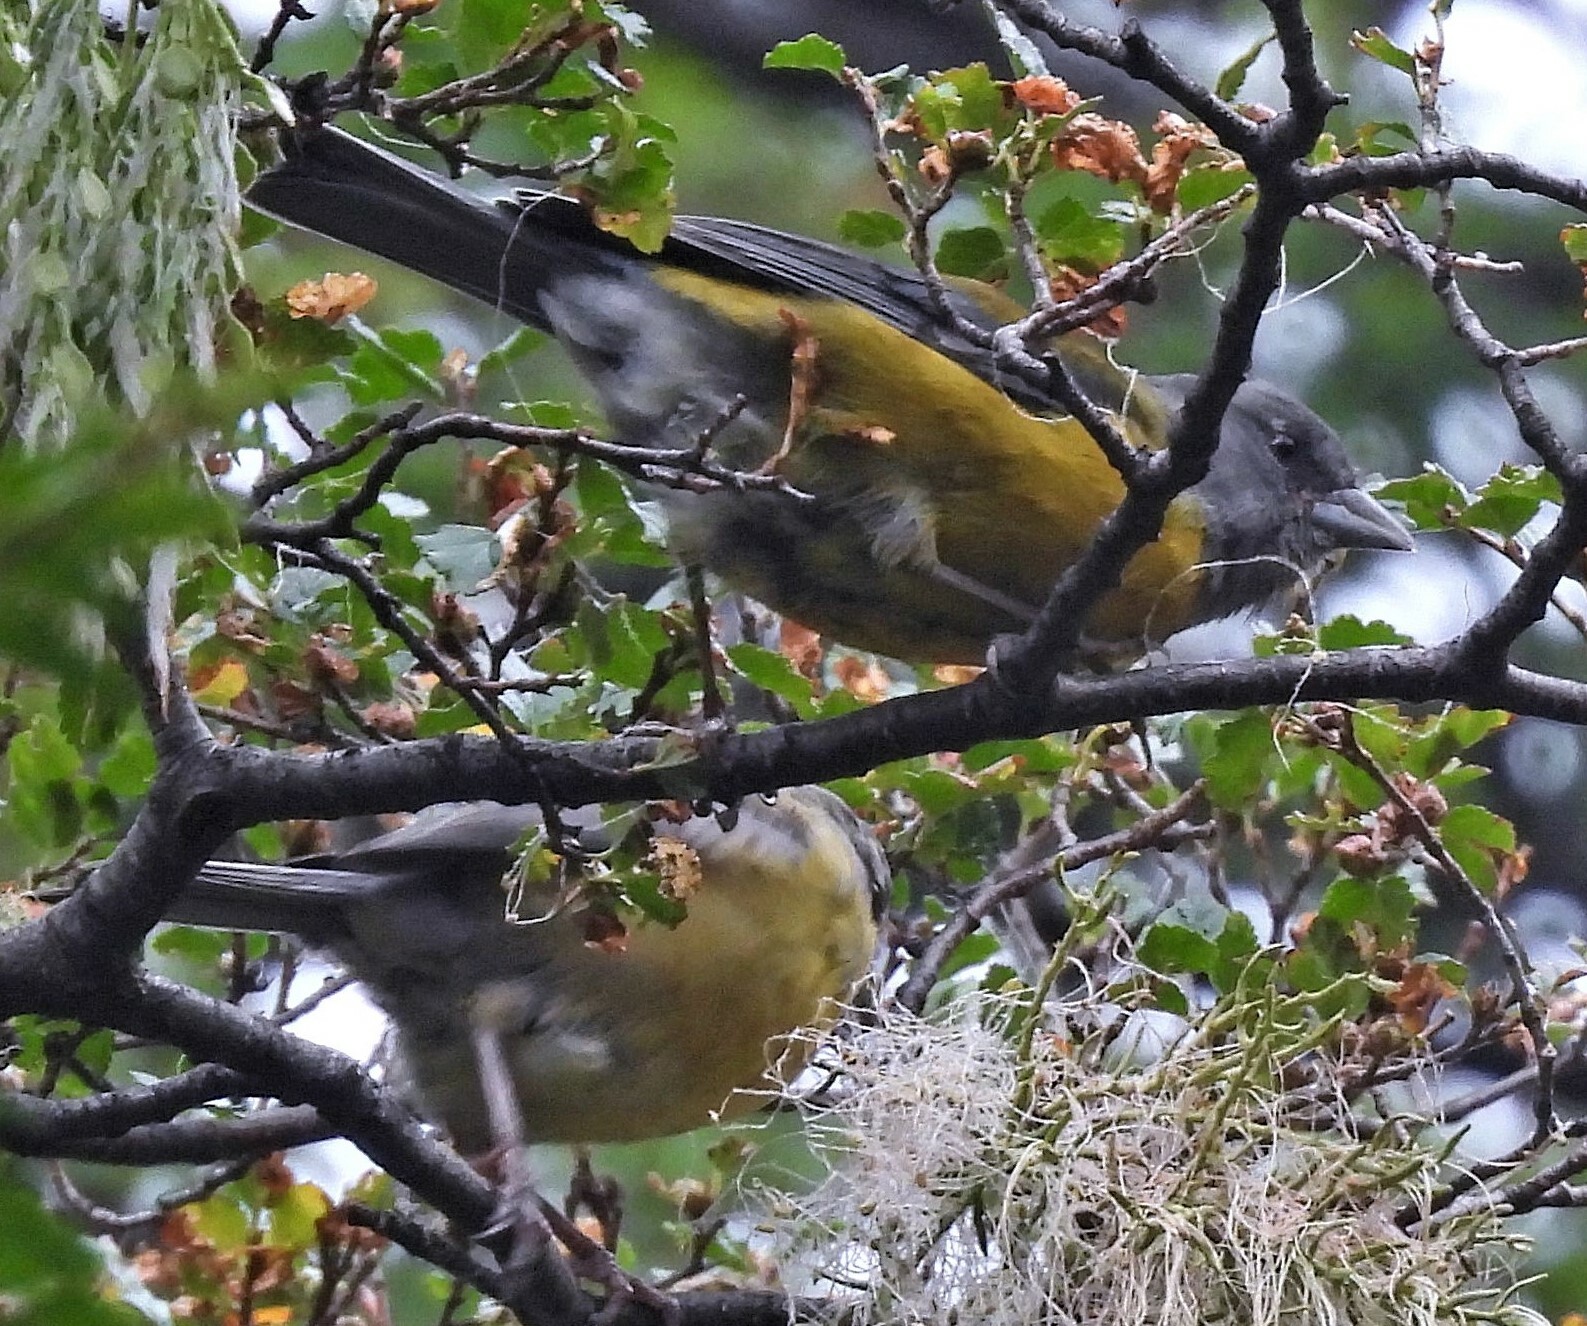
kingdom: Animalia
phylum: Chordata
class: Aves
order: Passeriformes
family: Thraupidae
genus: Phrygilus
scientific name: Phrygilus patagonicus
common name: Patagonian sierra finch
